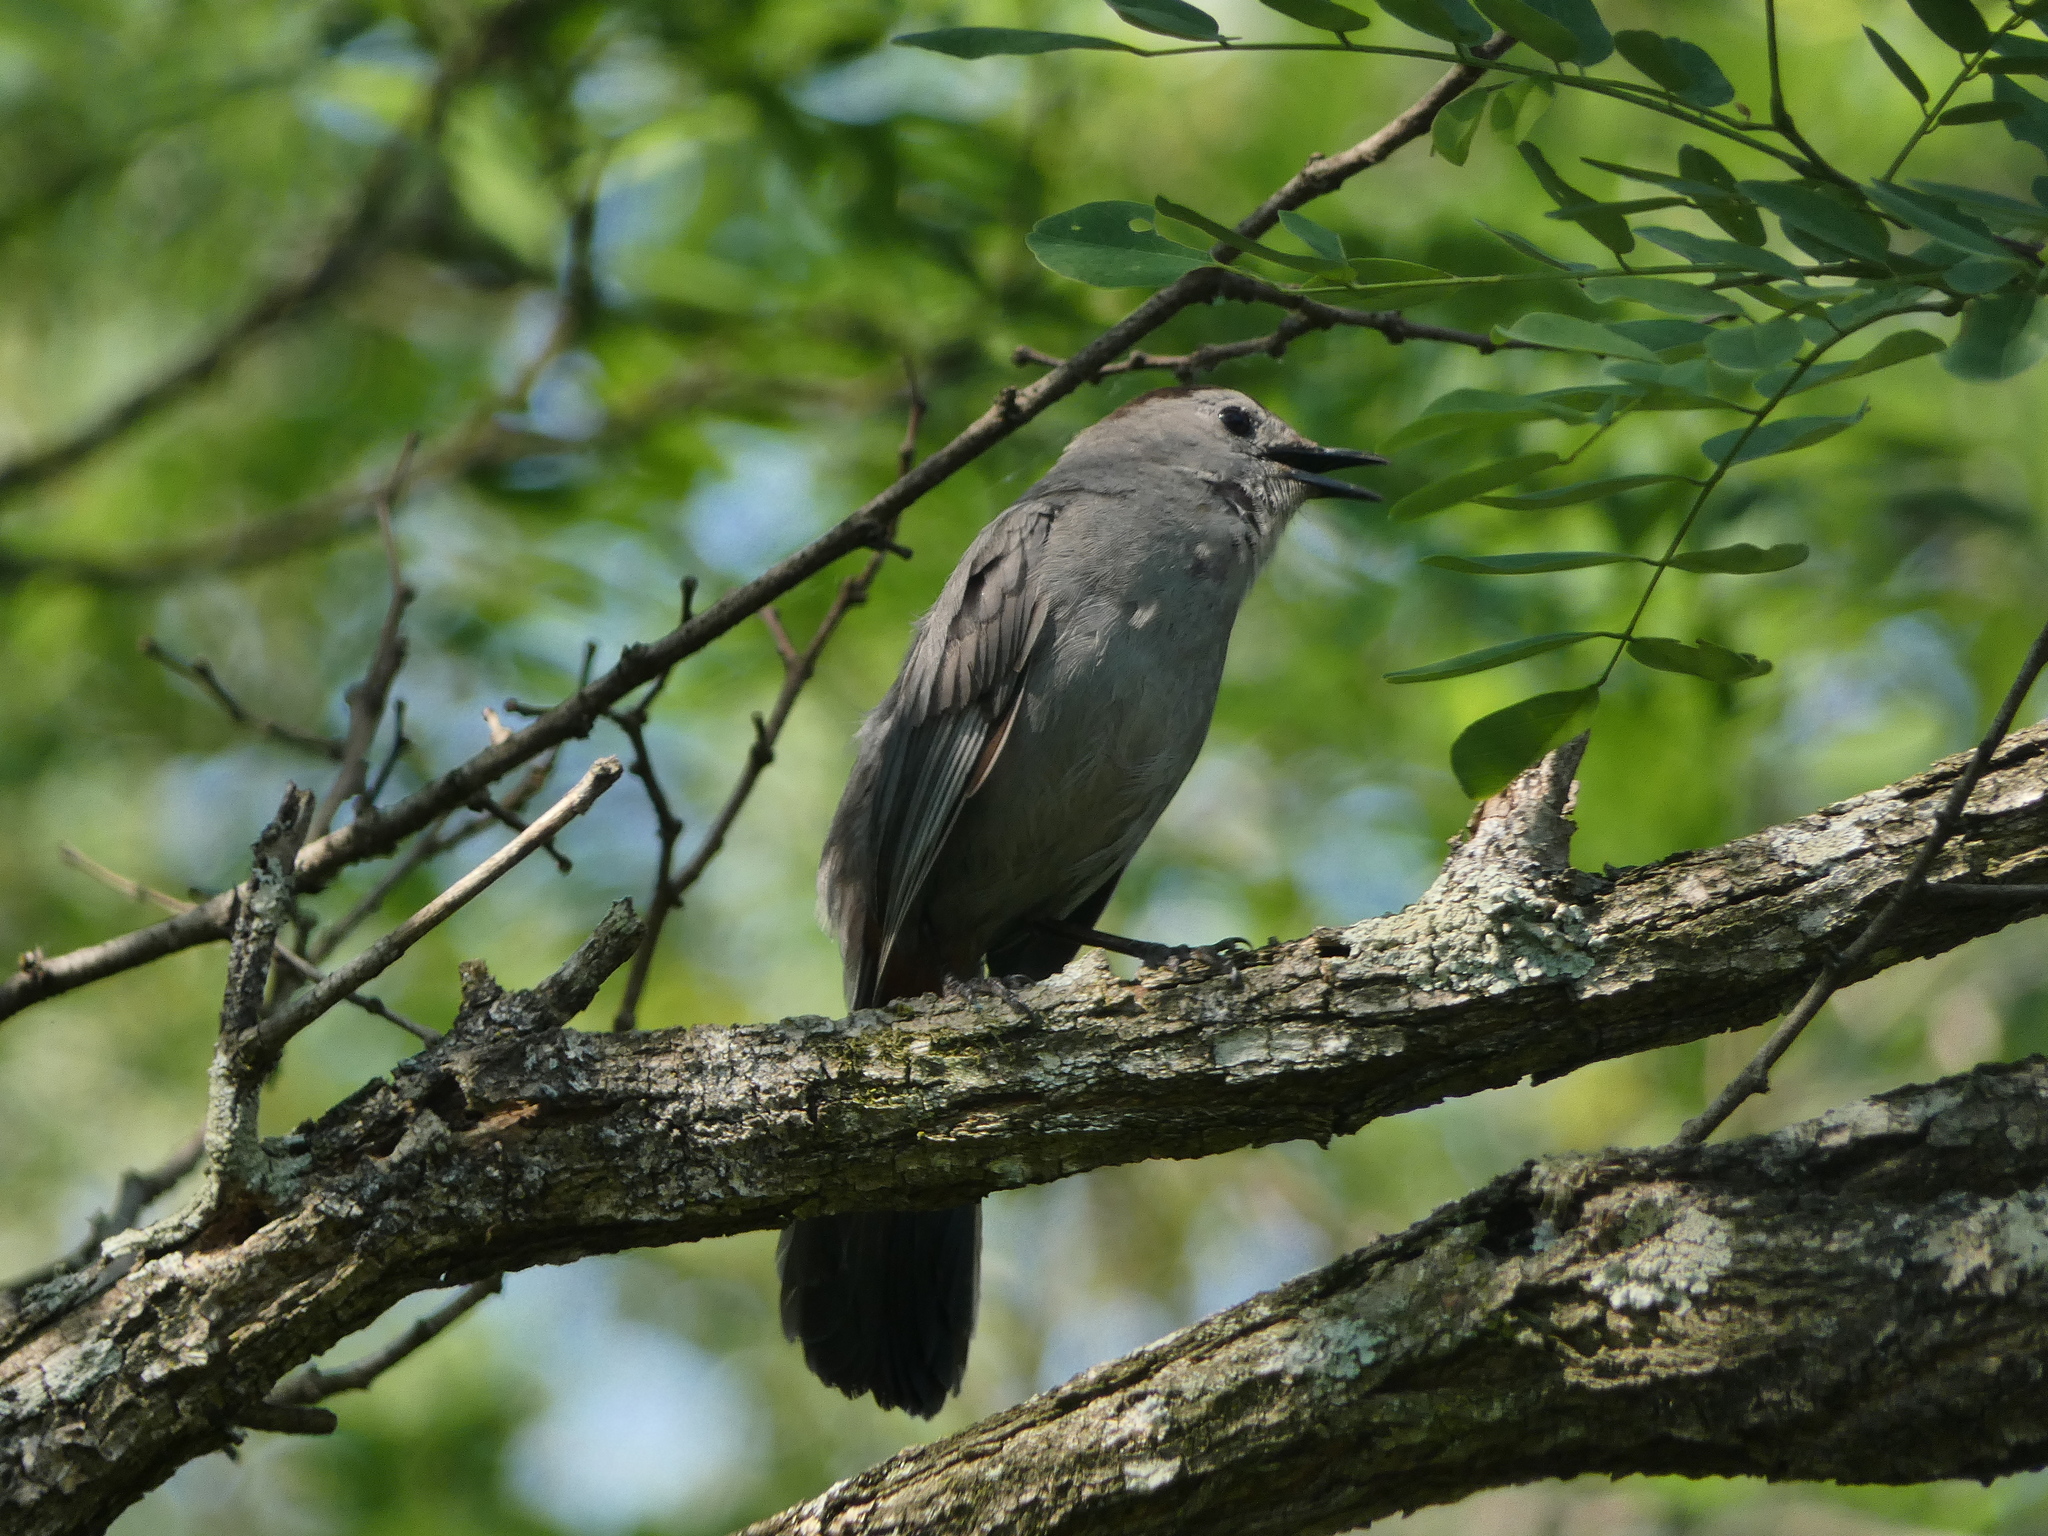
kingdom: Animalia
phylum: Chordata
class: Aves
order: Passeriformes
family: Mimidae
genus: Dumetella
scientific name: Dumetella carolinensis
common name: Gray catbird
